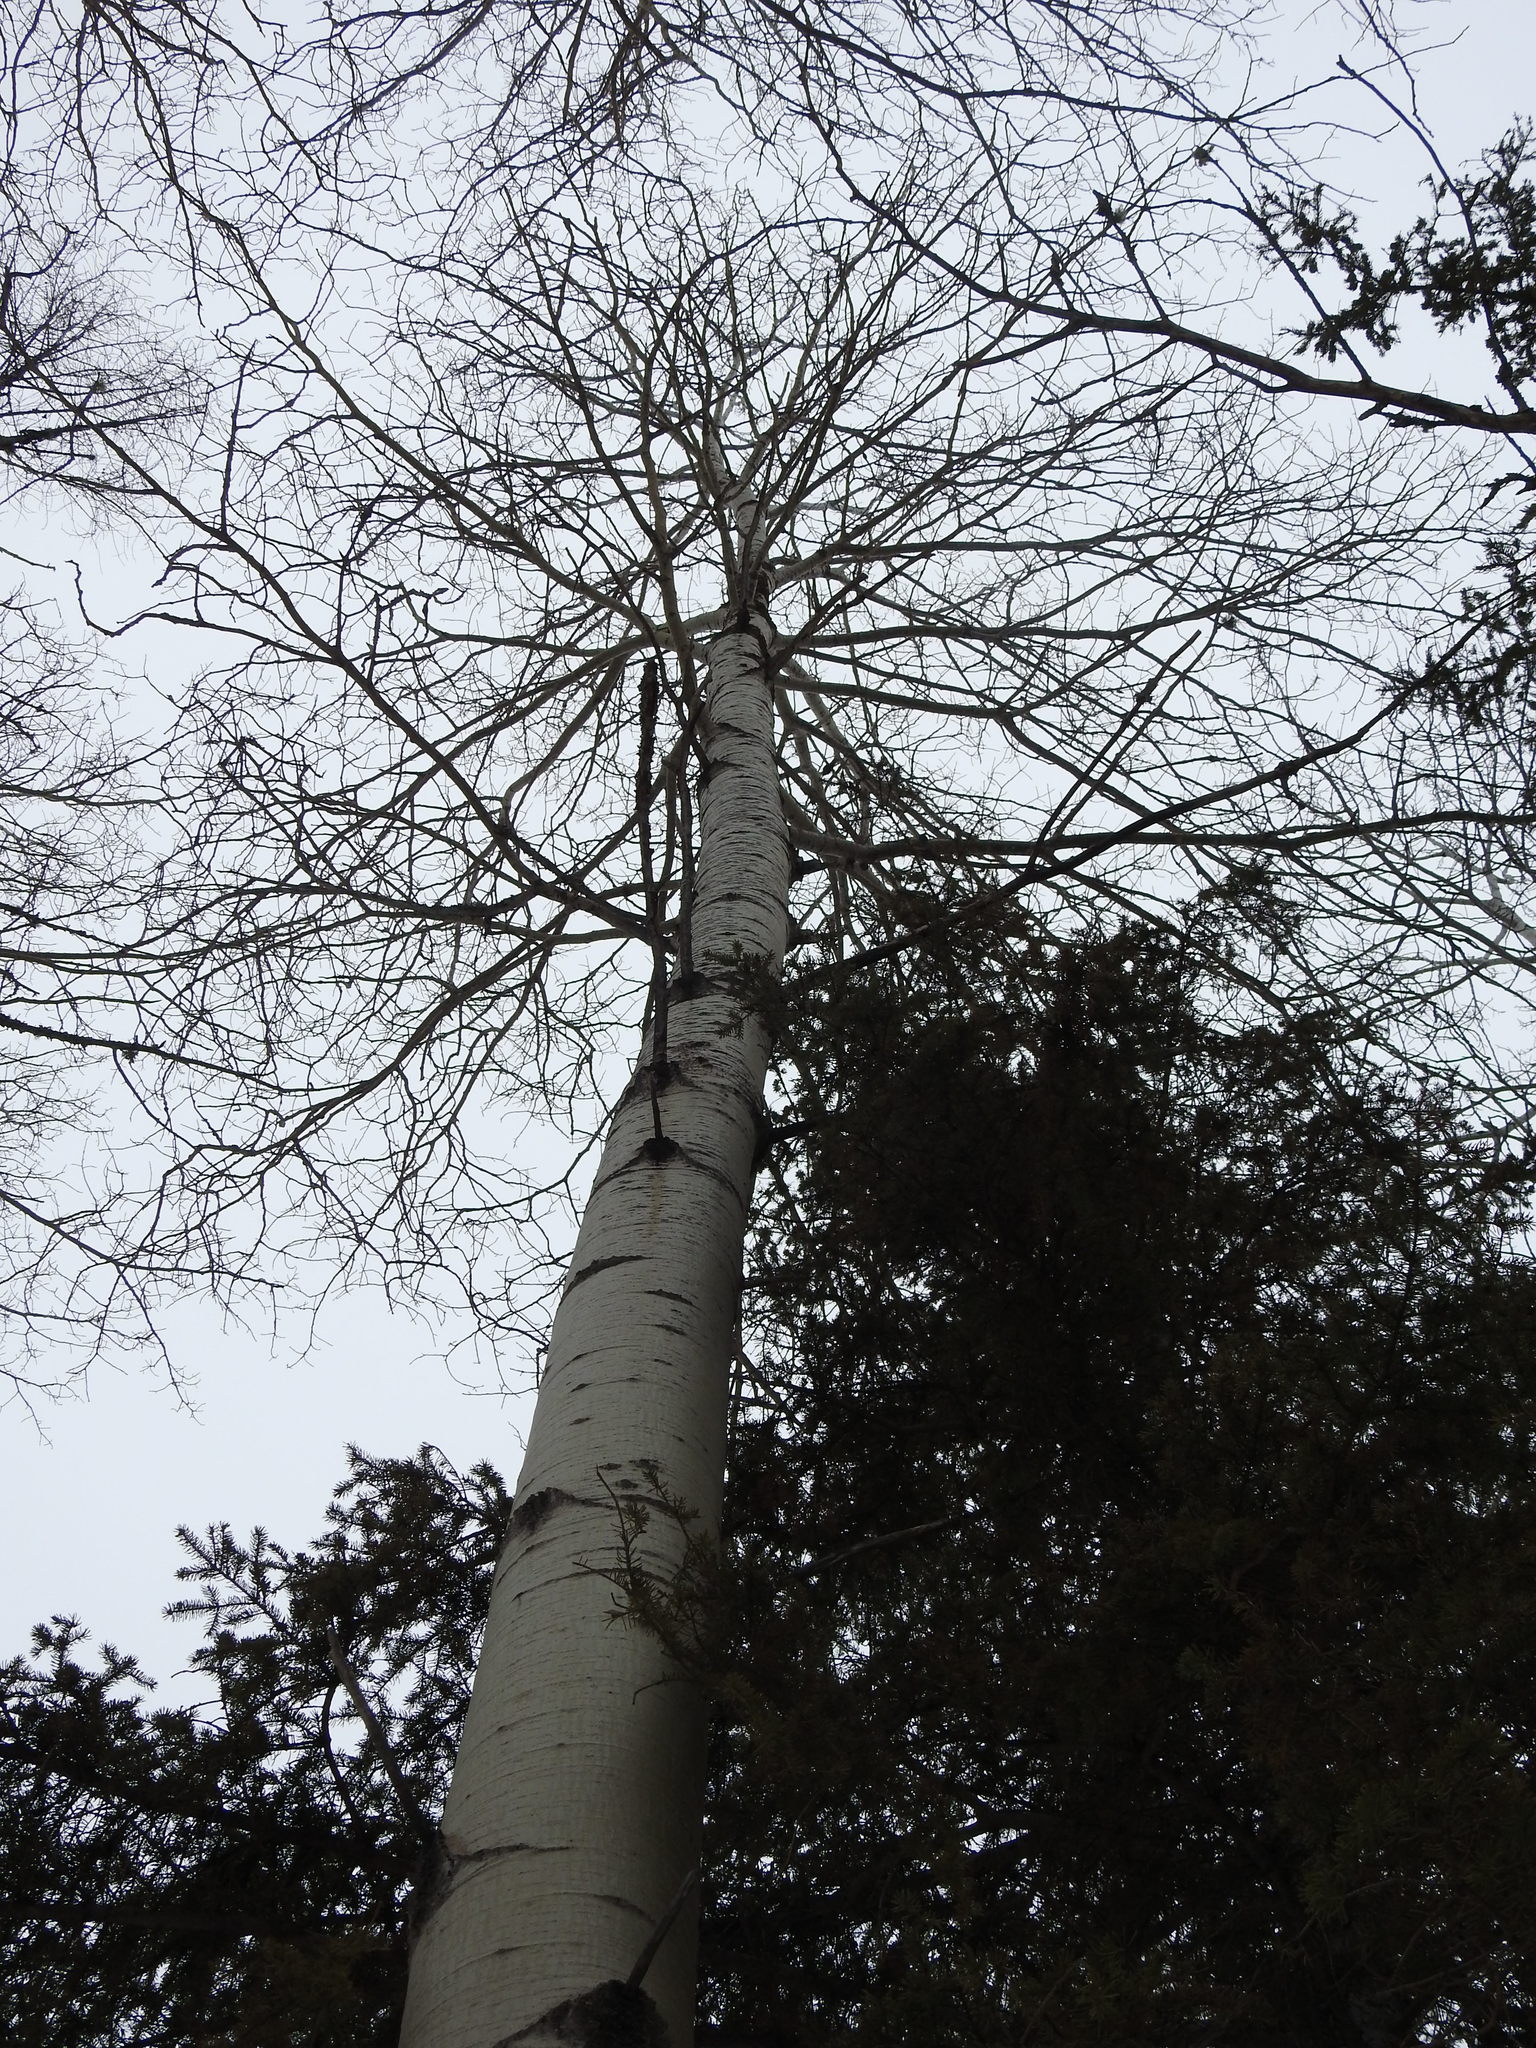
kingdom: Plantae
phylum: Tracheophyta
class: Magnoliopsida
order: Malpighiales
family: Salicaceae
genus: Populus
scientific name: Populus tremuloides
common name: Quaking aspen
